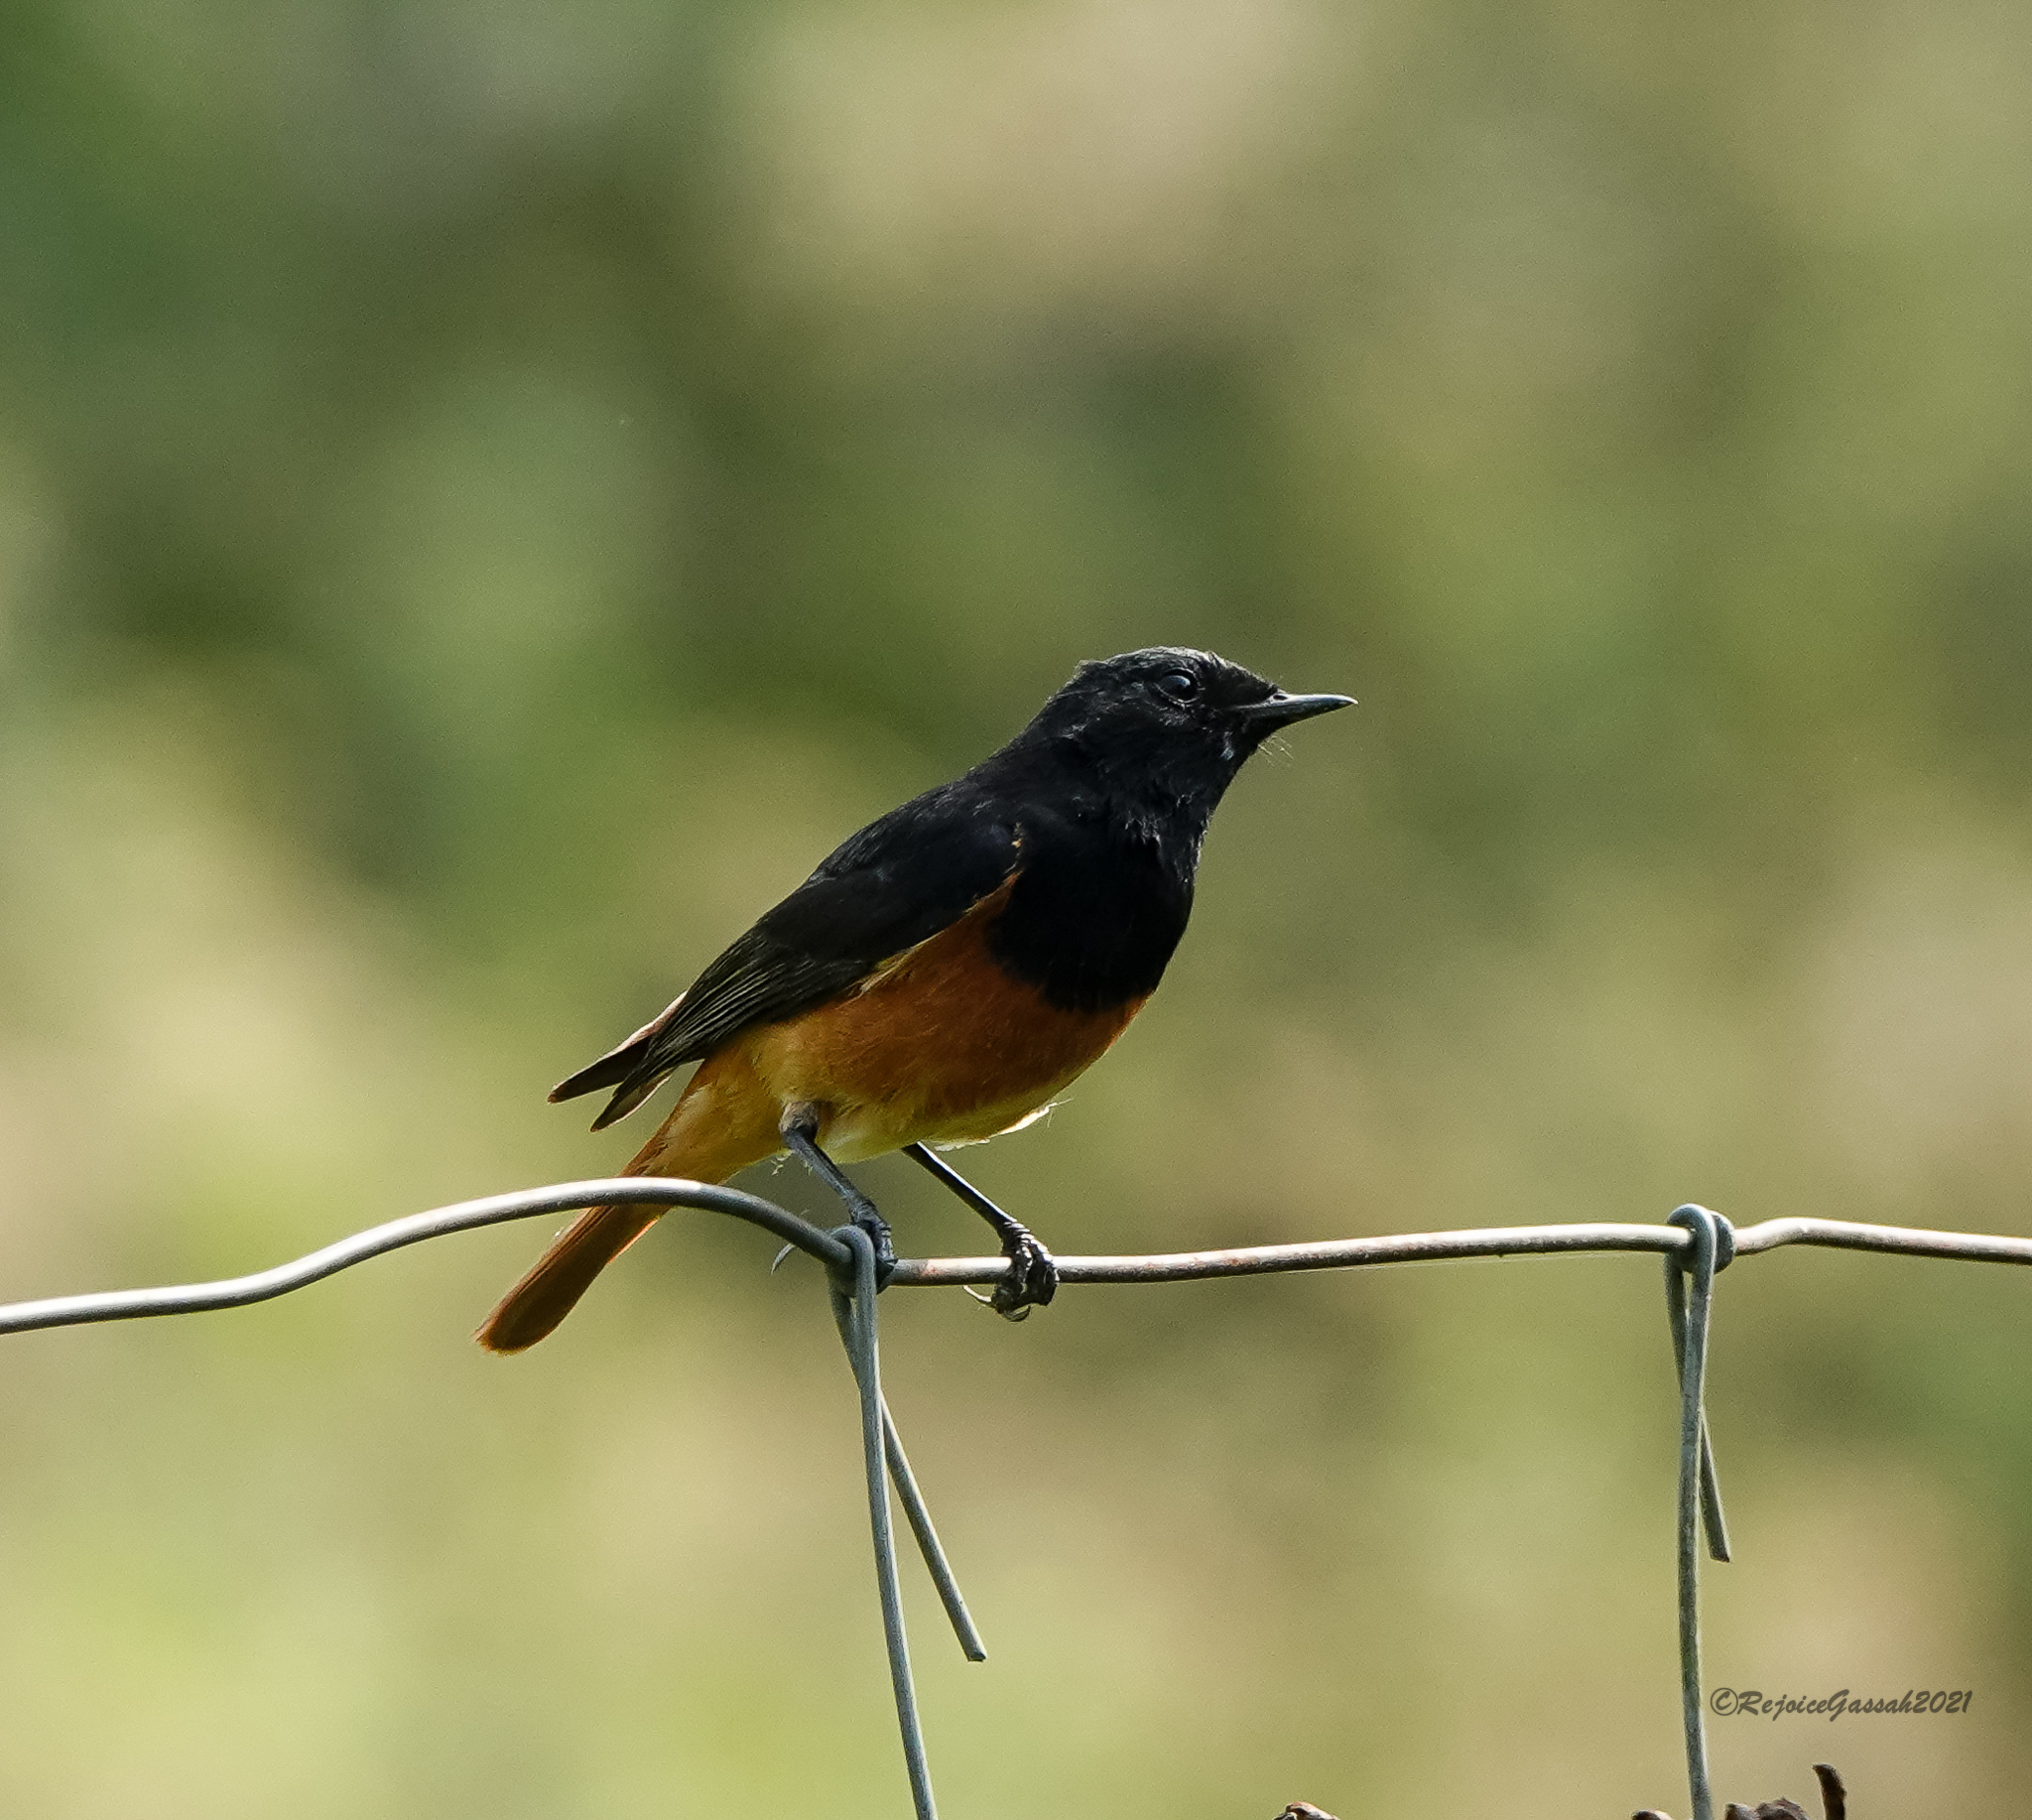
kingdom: Animalia
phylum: Chordata
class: Aves
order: Passeriformes
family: Muscicapidae
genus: Phoenicurus
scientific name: Phoenicurus ochruros
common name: Black redstart
